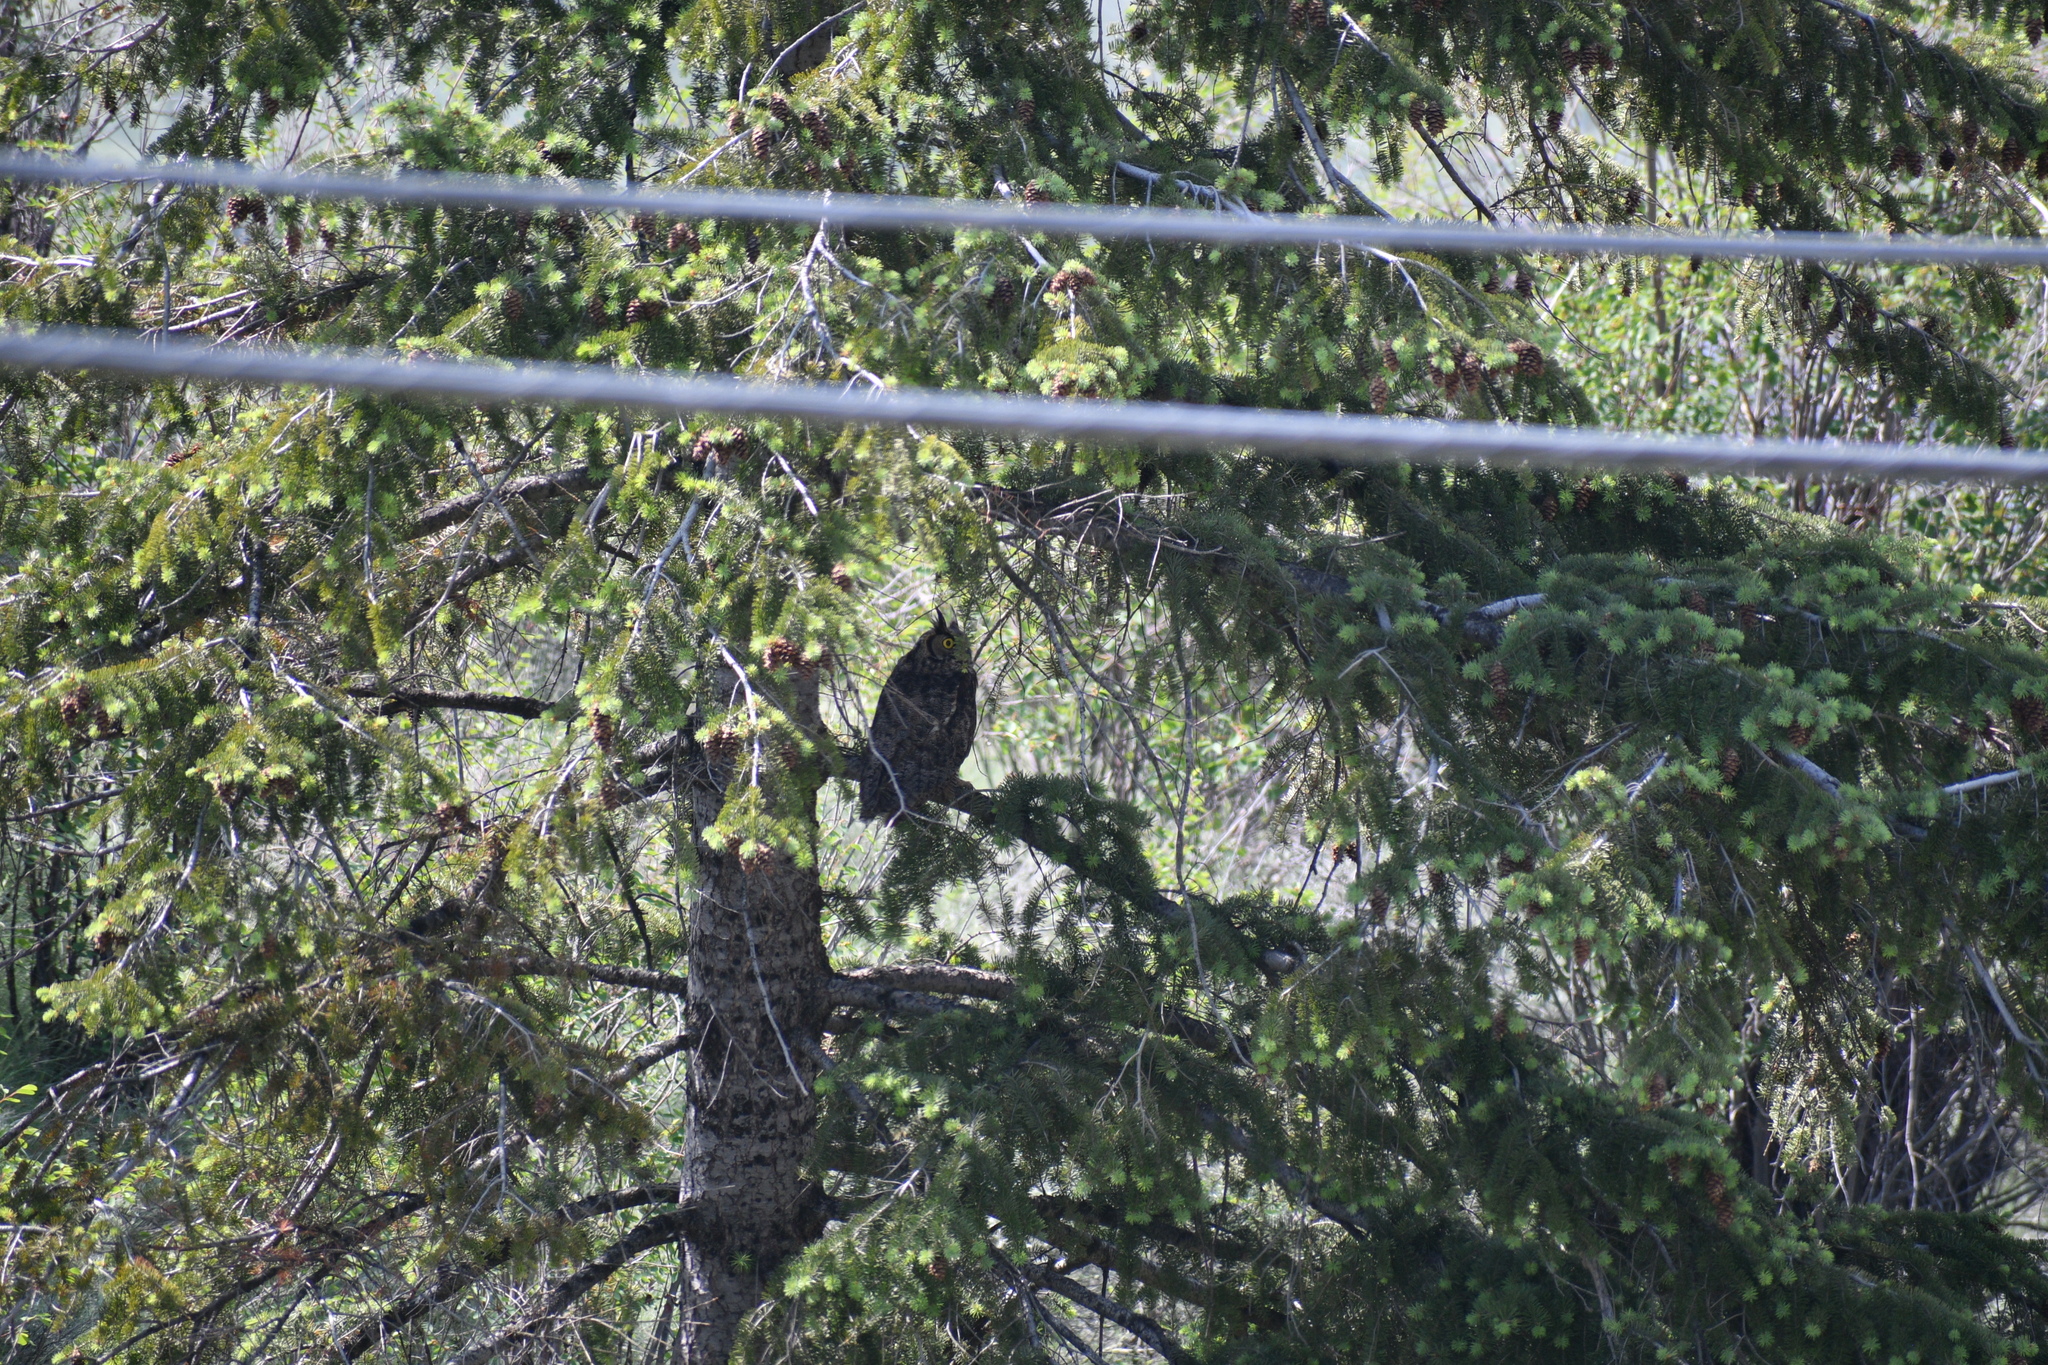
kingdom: Animalia
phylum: Chordata
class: Aves
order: Strigiformes
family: Strigidae
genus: Bubo
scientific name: Bubo virginianus
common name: Great horned owl
